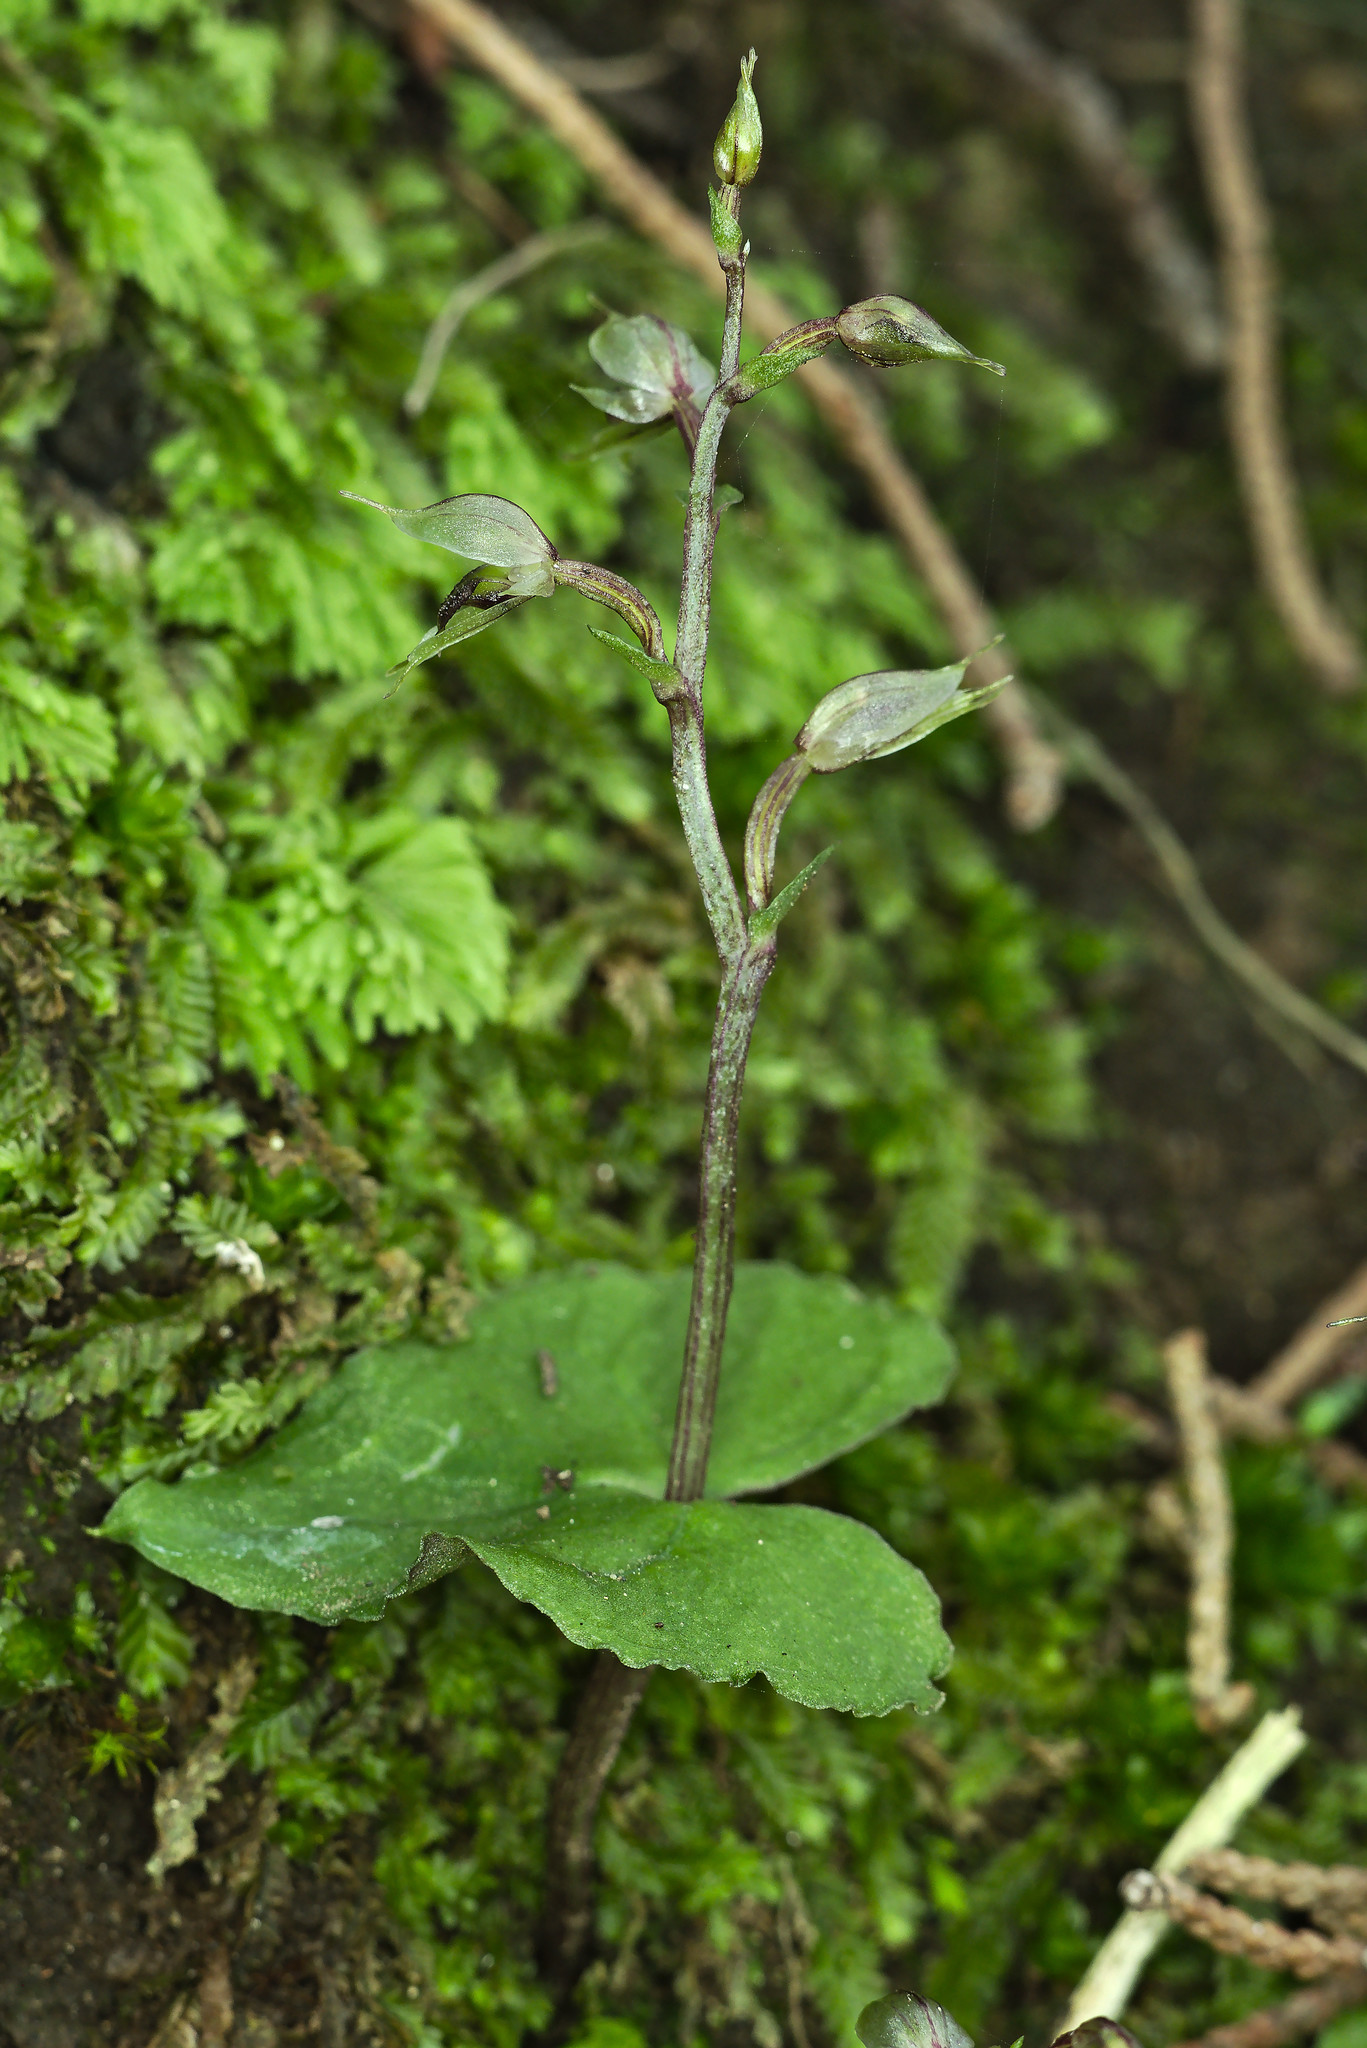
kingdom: Plantae
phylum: Tracheophyta
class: Liliopsida
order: Asparagales
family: Orchidaceae
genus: Acianthus
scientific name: Acianthus sinclairii
